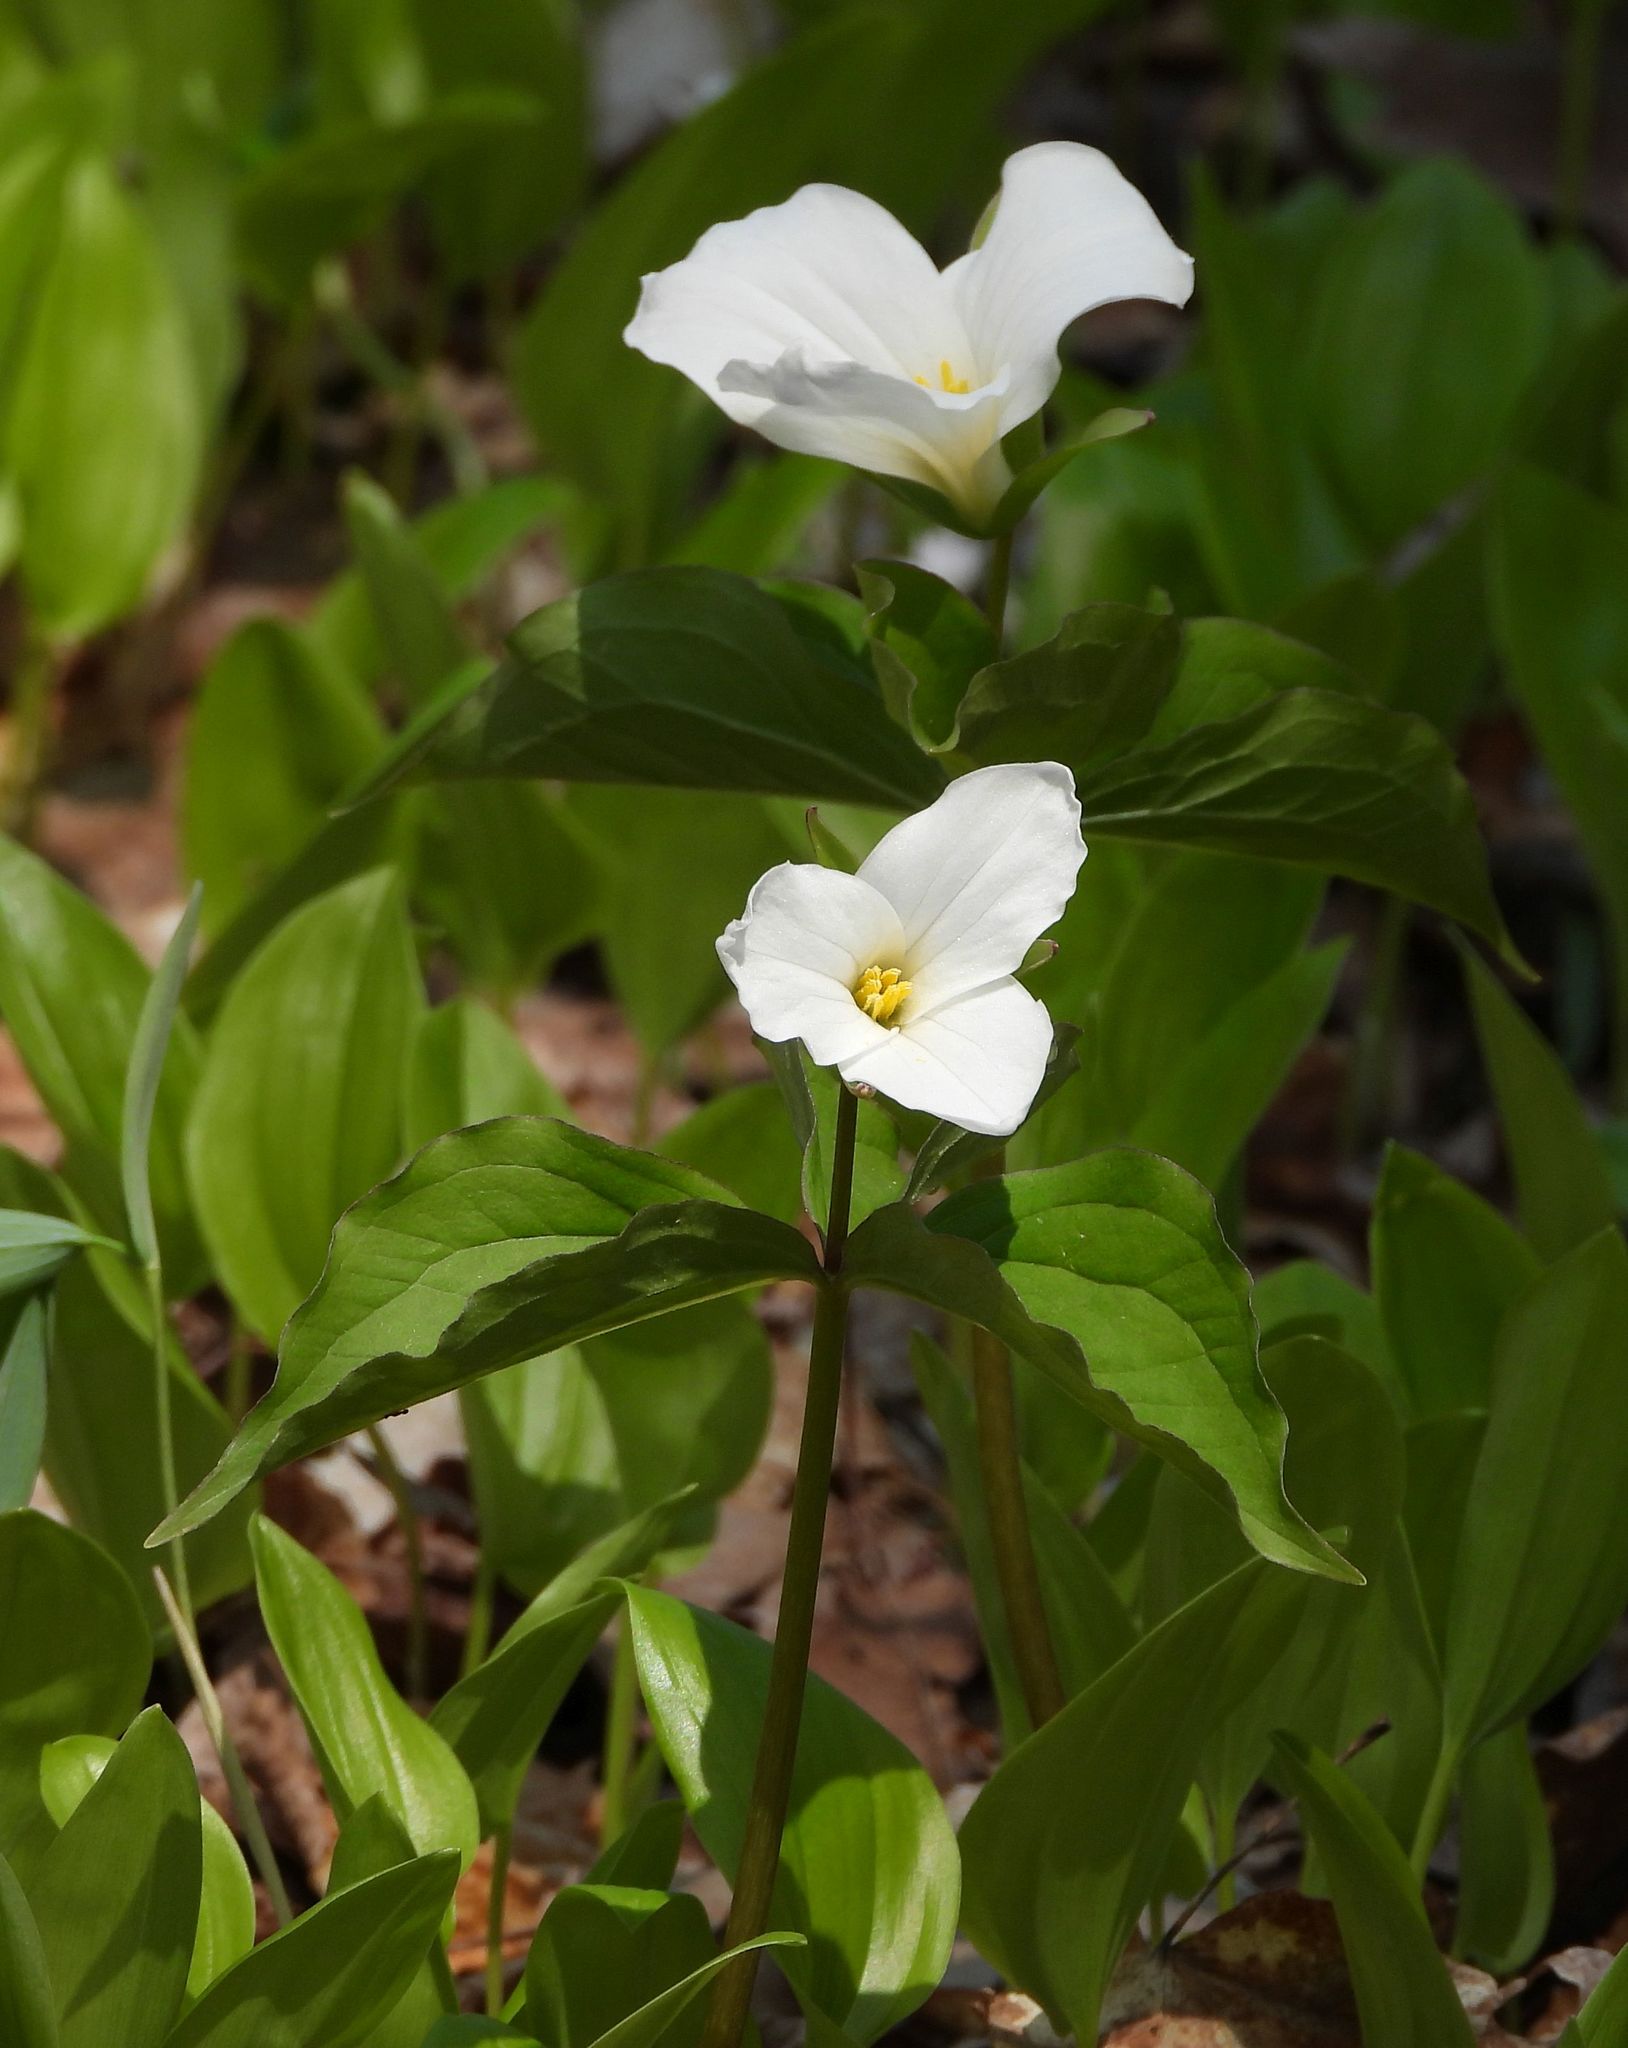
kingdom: Plantae
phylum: Tracheophyta
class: Liliopsida
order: Liliales
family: Melanthiaceae
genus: Trillium
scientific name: Trillium grandiflorum
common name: Great white trillium
